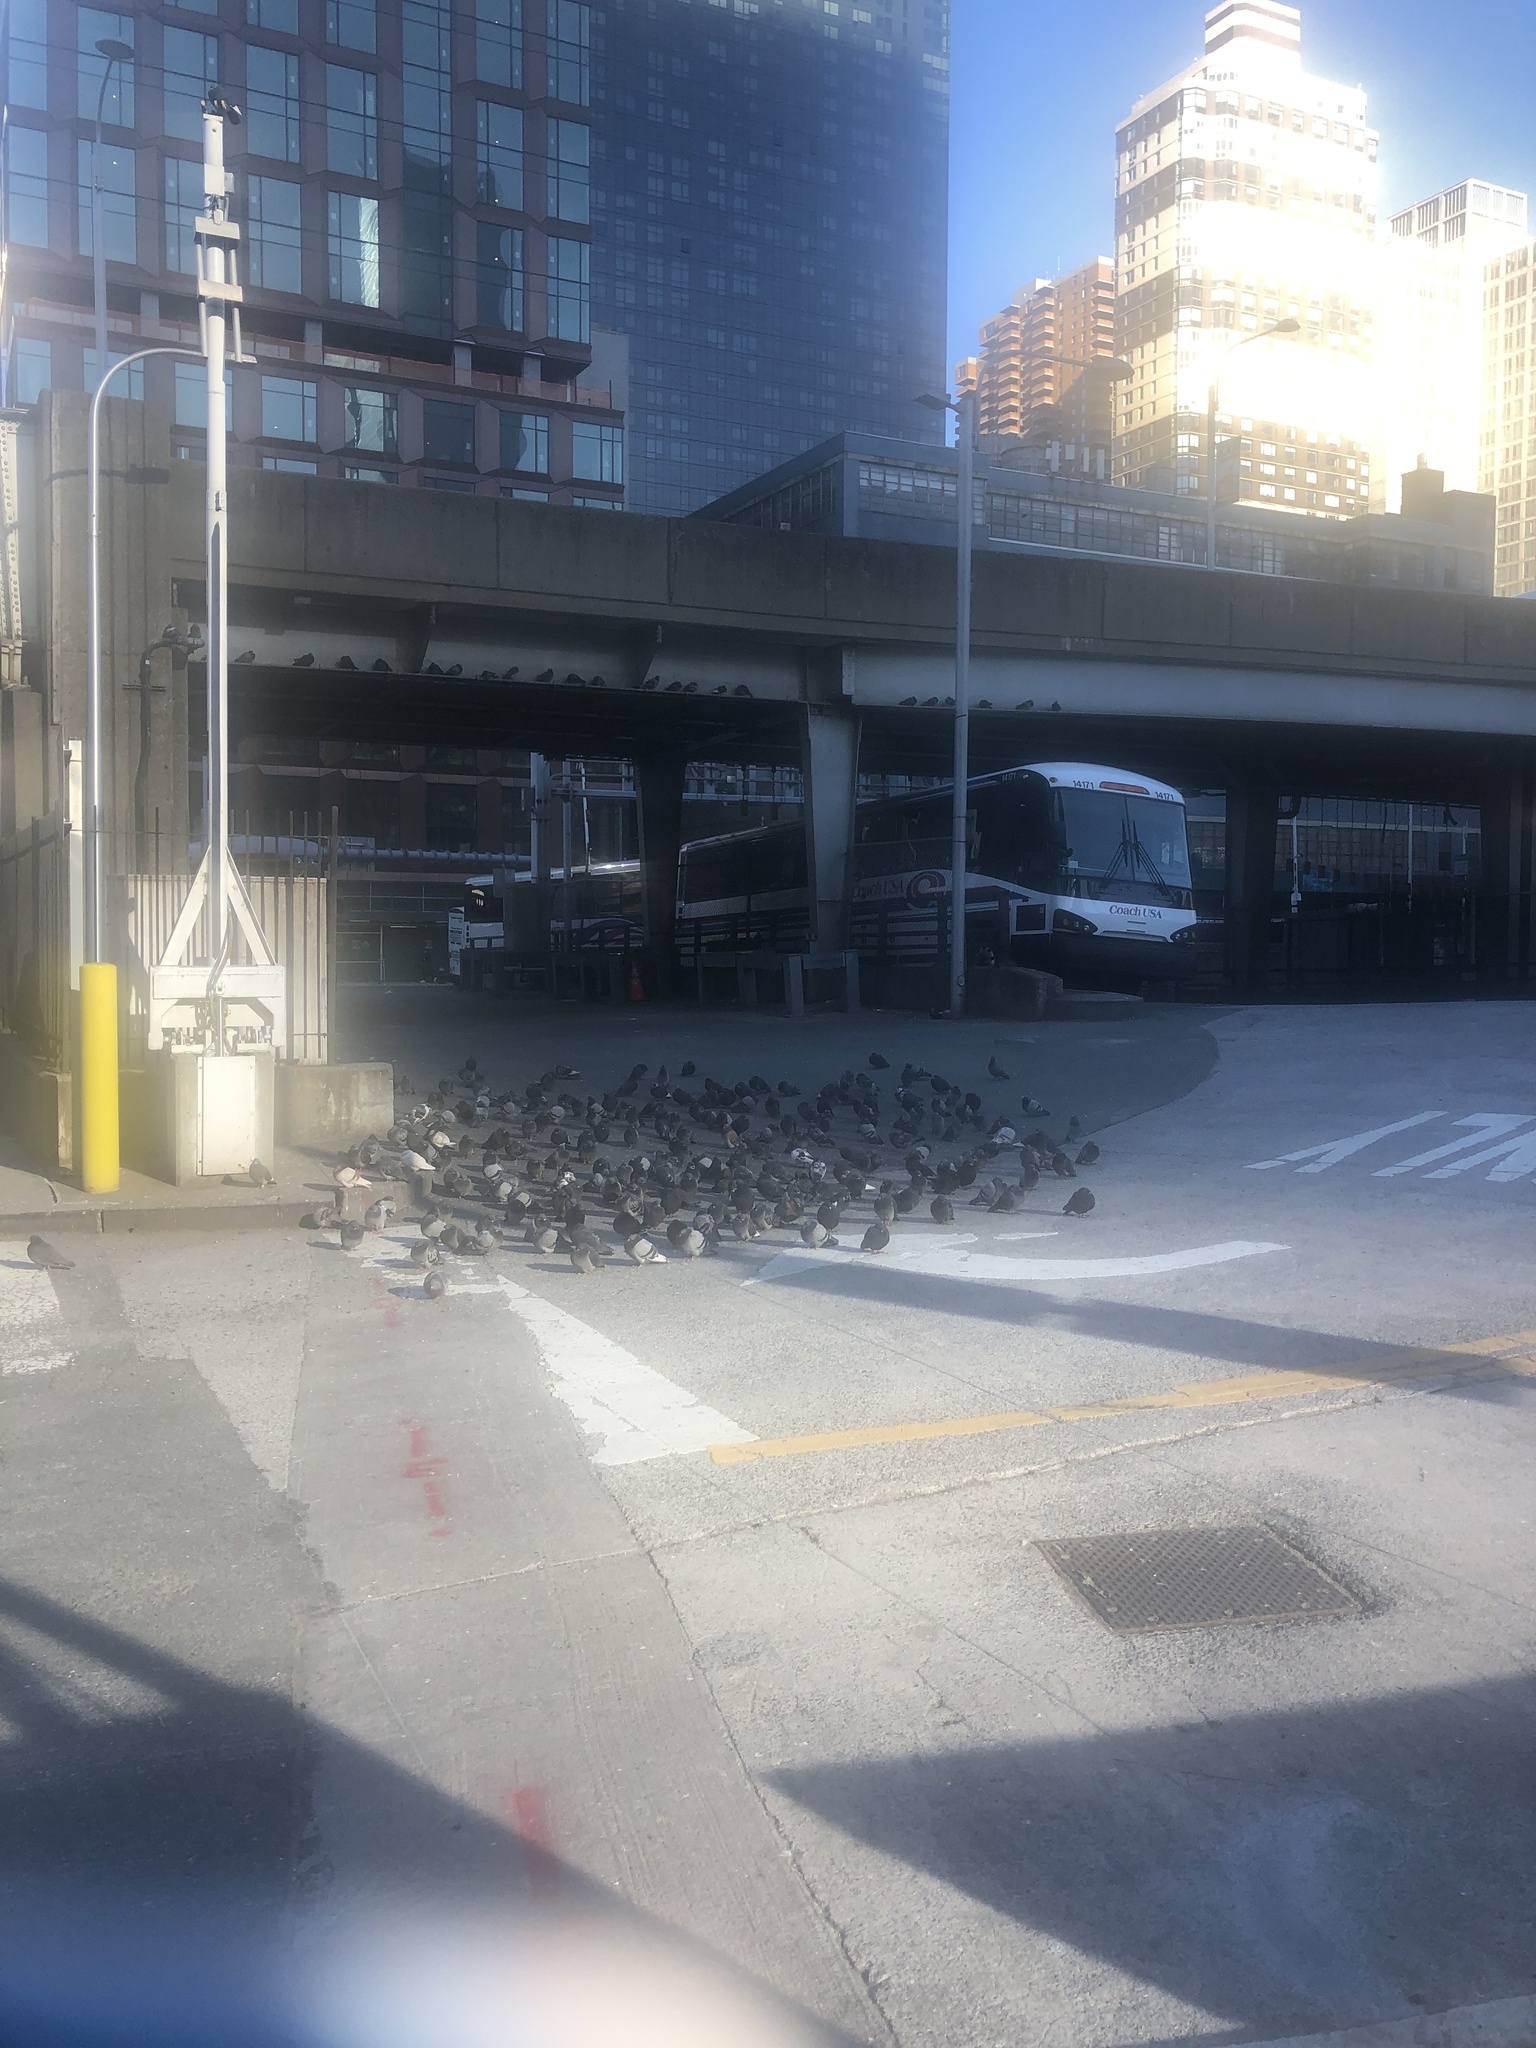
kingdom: Animalia
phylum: Chordata
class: Aves
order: Columbiformes
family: Columbidae
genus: Columba
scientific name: Columba livia
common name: Rock pigeon
